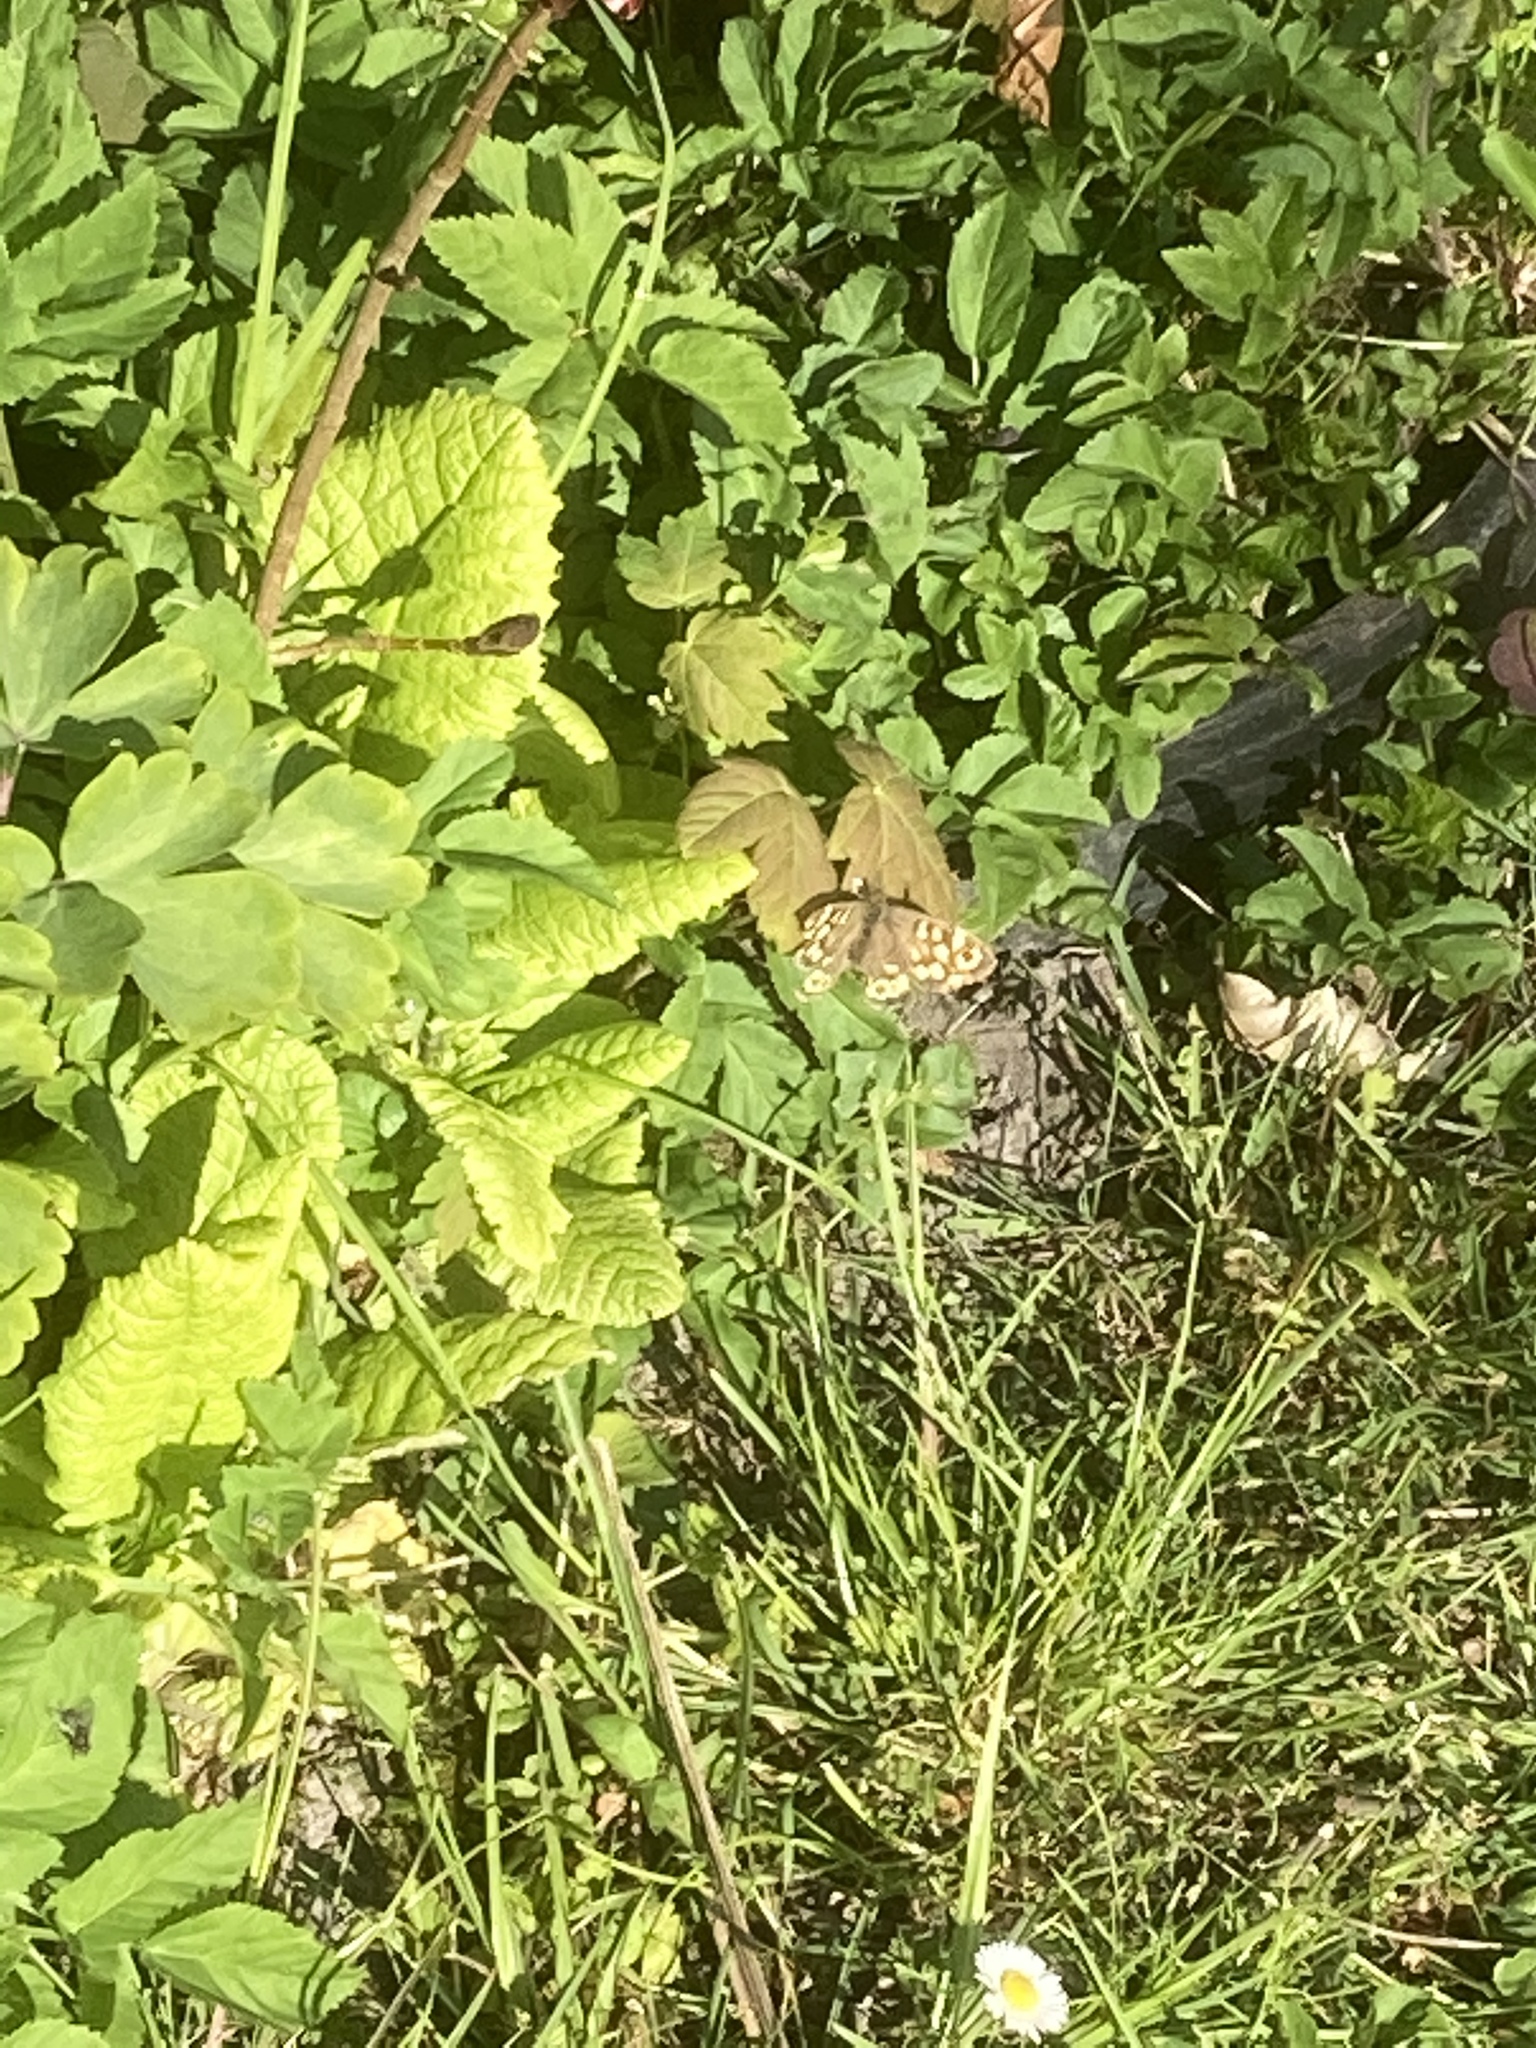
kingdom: Animalia
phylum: Arthropoda
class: Insecta
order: Lepidoptera
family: Nymphalidae
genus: Pararge
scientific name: Pararge aegeria
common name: Speckled wood
